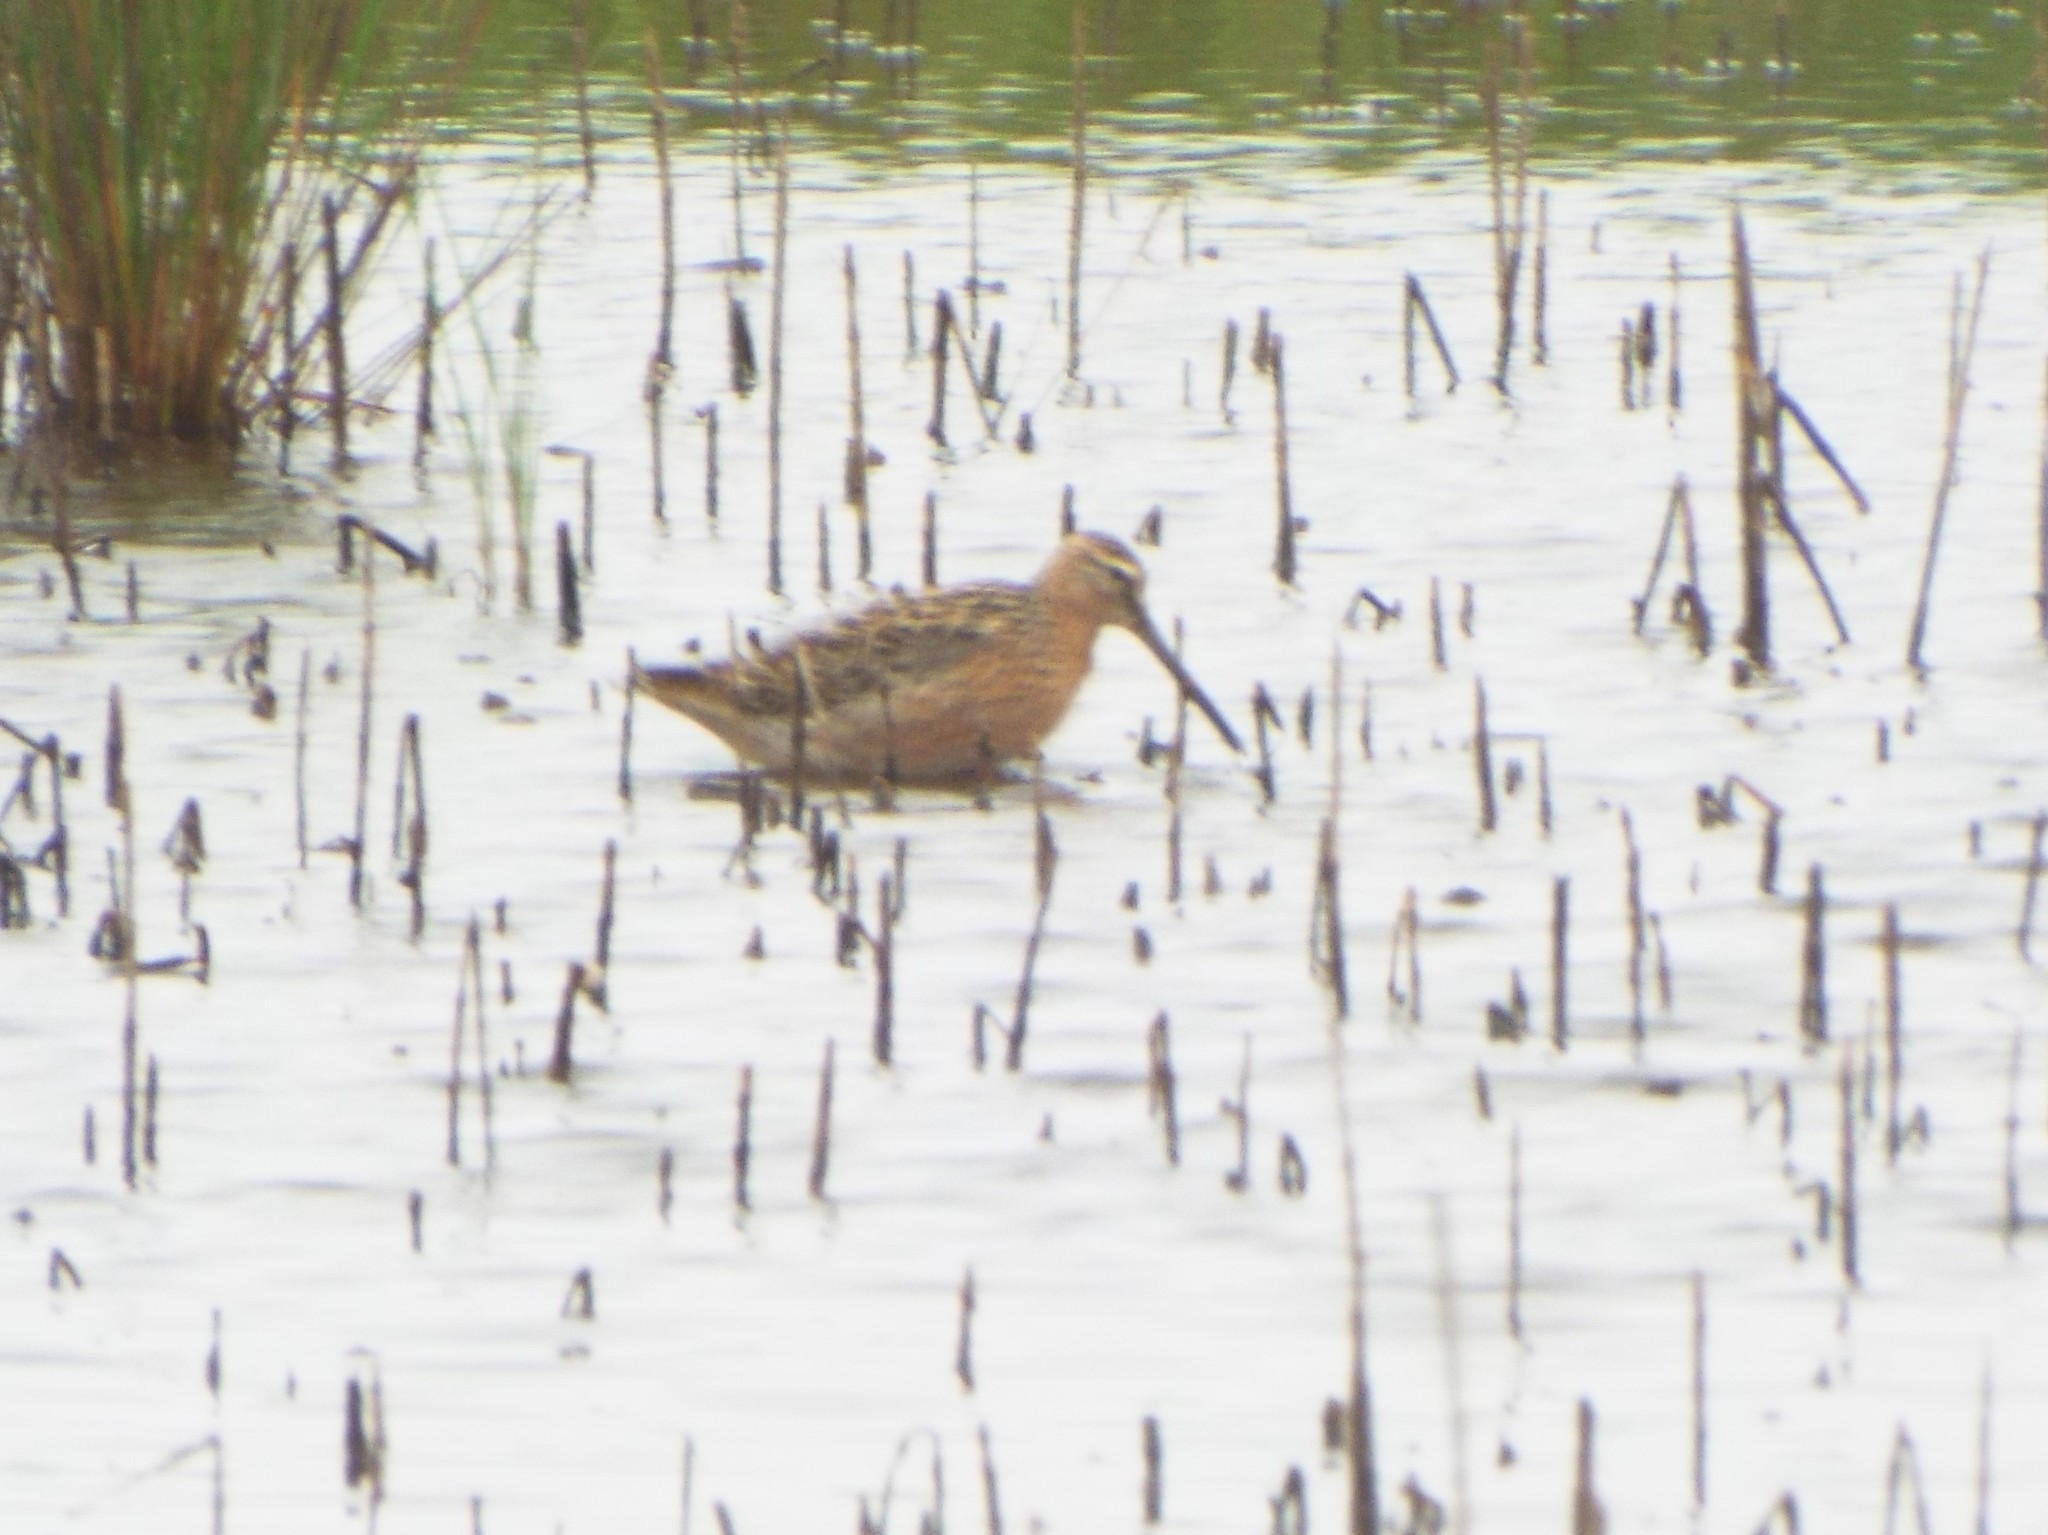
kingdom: Animalia
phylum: Chordata
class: Aves
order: Charadriiformes
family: Scolopacidae
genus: Limnodromus
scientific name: Limnodromus griseus
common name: Short-billed dowitcher
